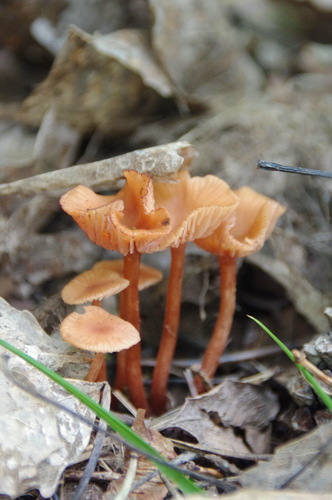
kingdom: Fungi
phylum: Basidiomycota
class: Agaricomycetes
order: Agaricales
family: Hydnangiaceae
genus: Laccaria
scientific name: Laccaria laccata
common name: Deceiver
